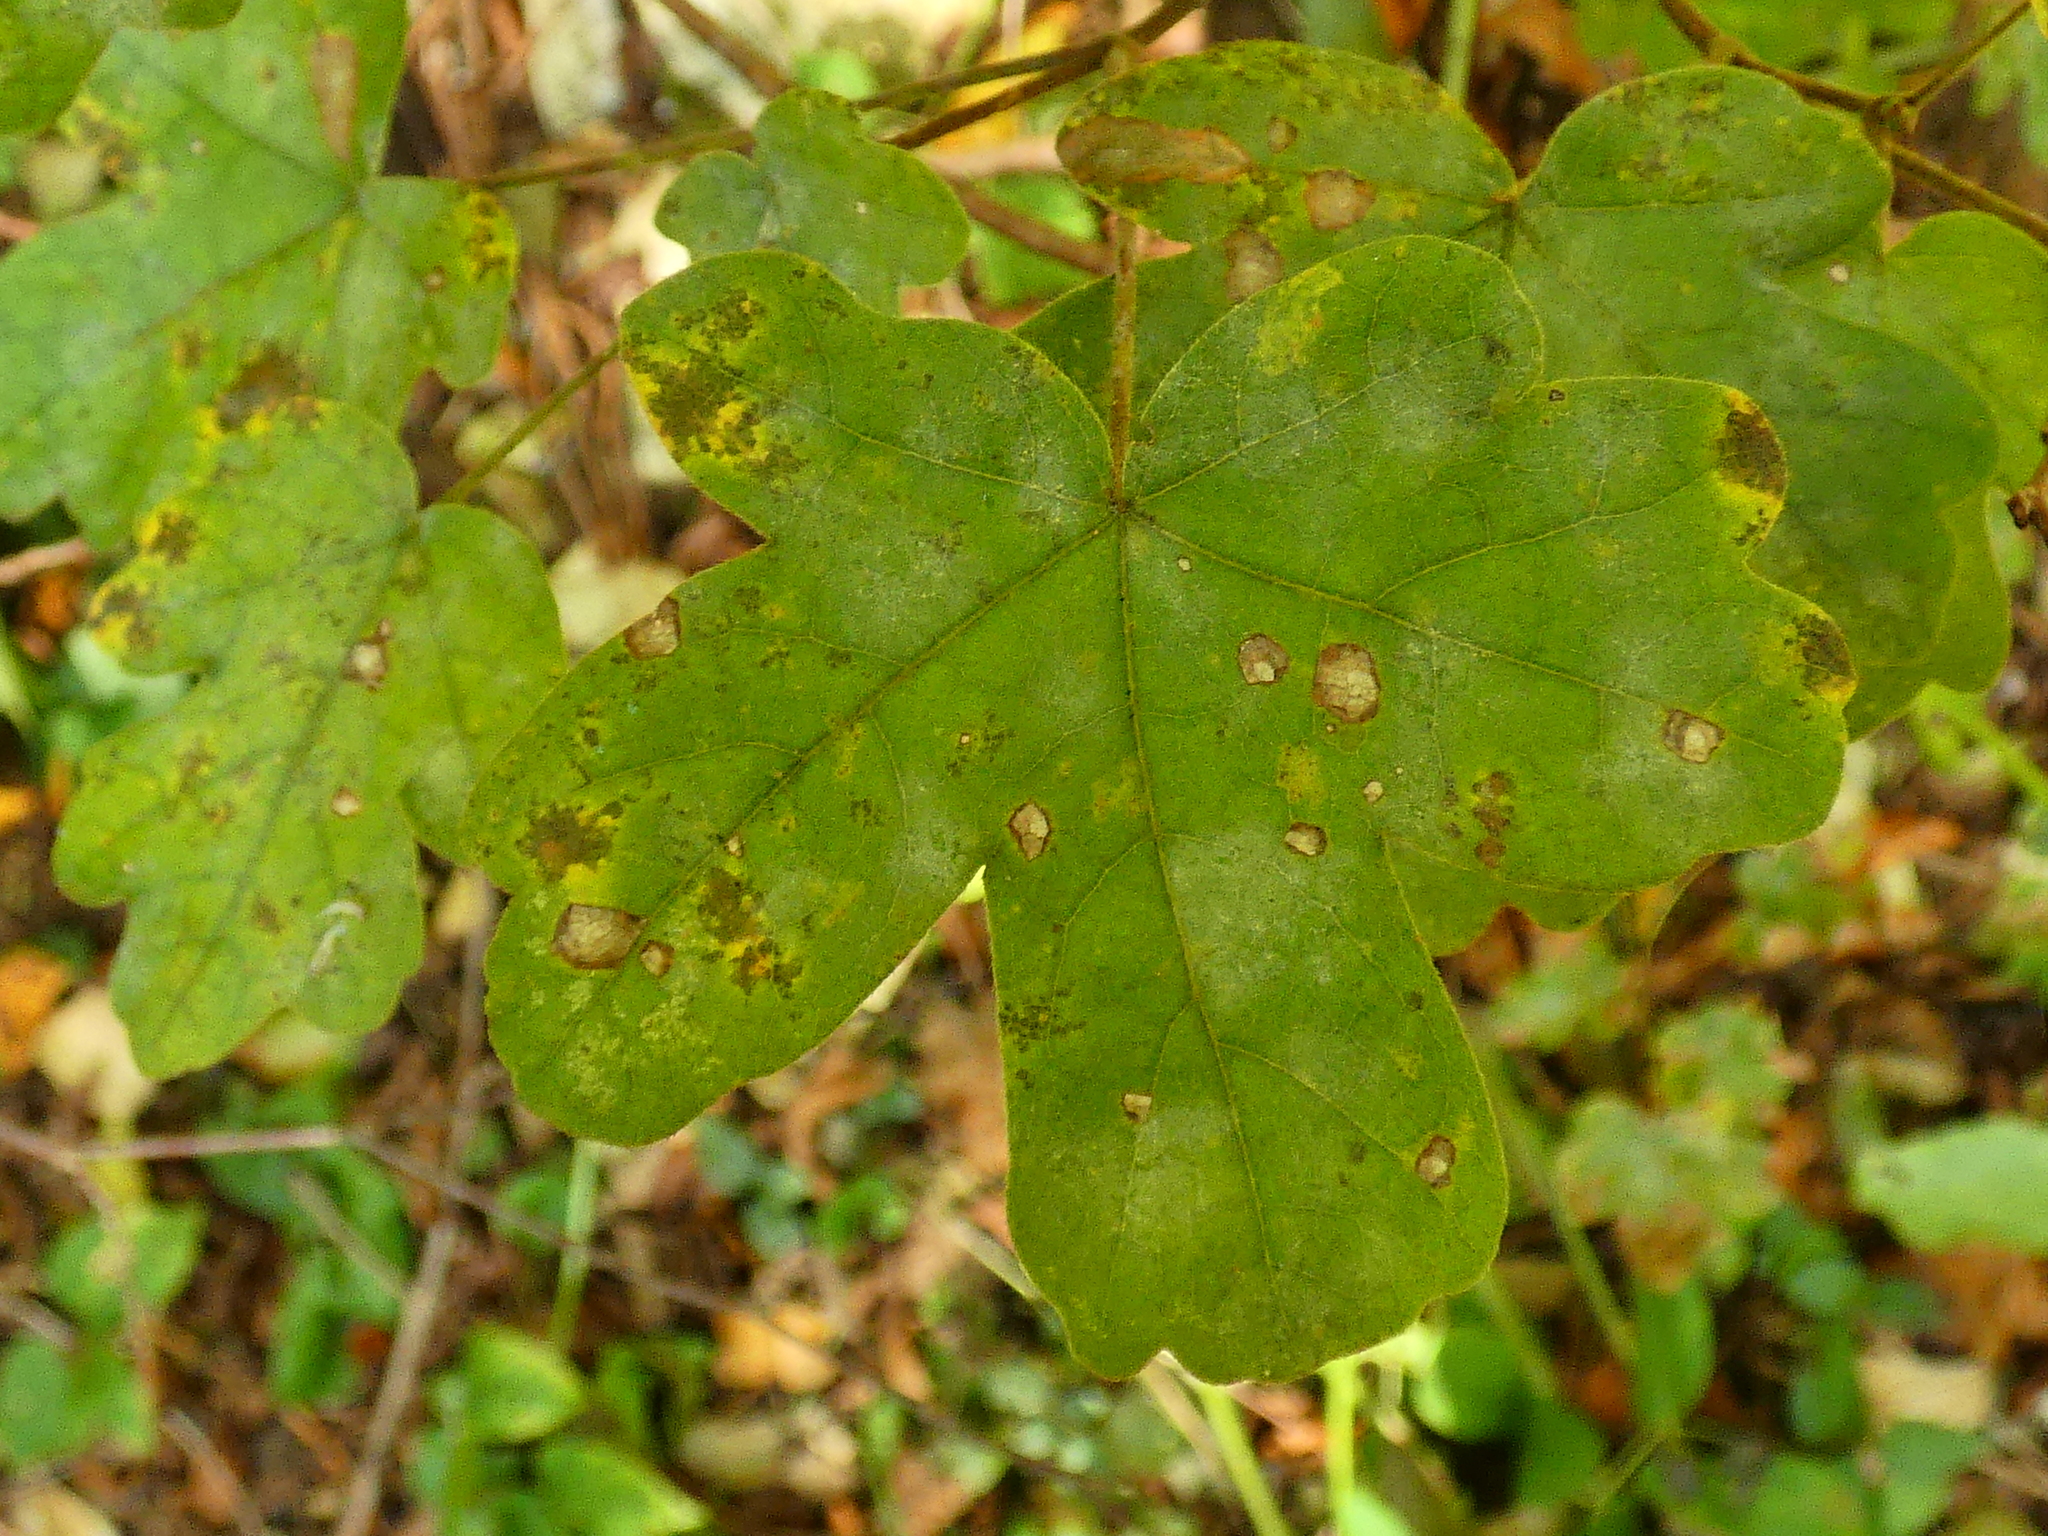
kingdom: Plantae
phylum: Tracheophyta
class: Magnoliopsida
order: Sapindales
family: Sapindaceae
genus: Acer
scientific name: Acer campestre
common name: Field maple
